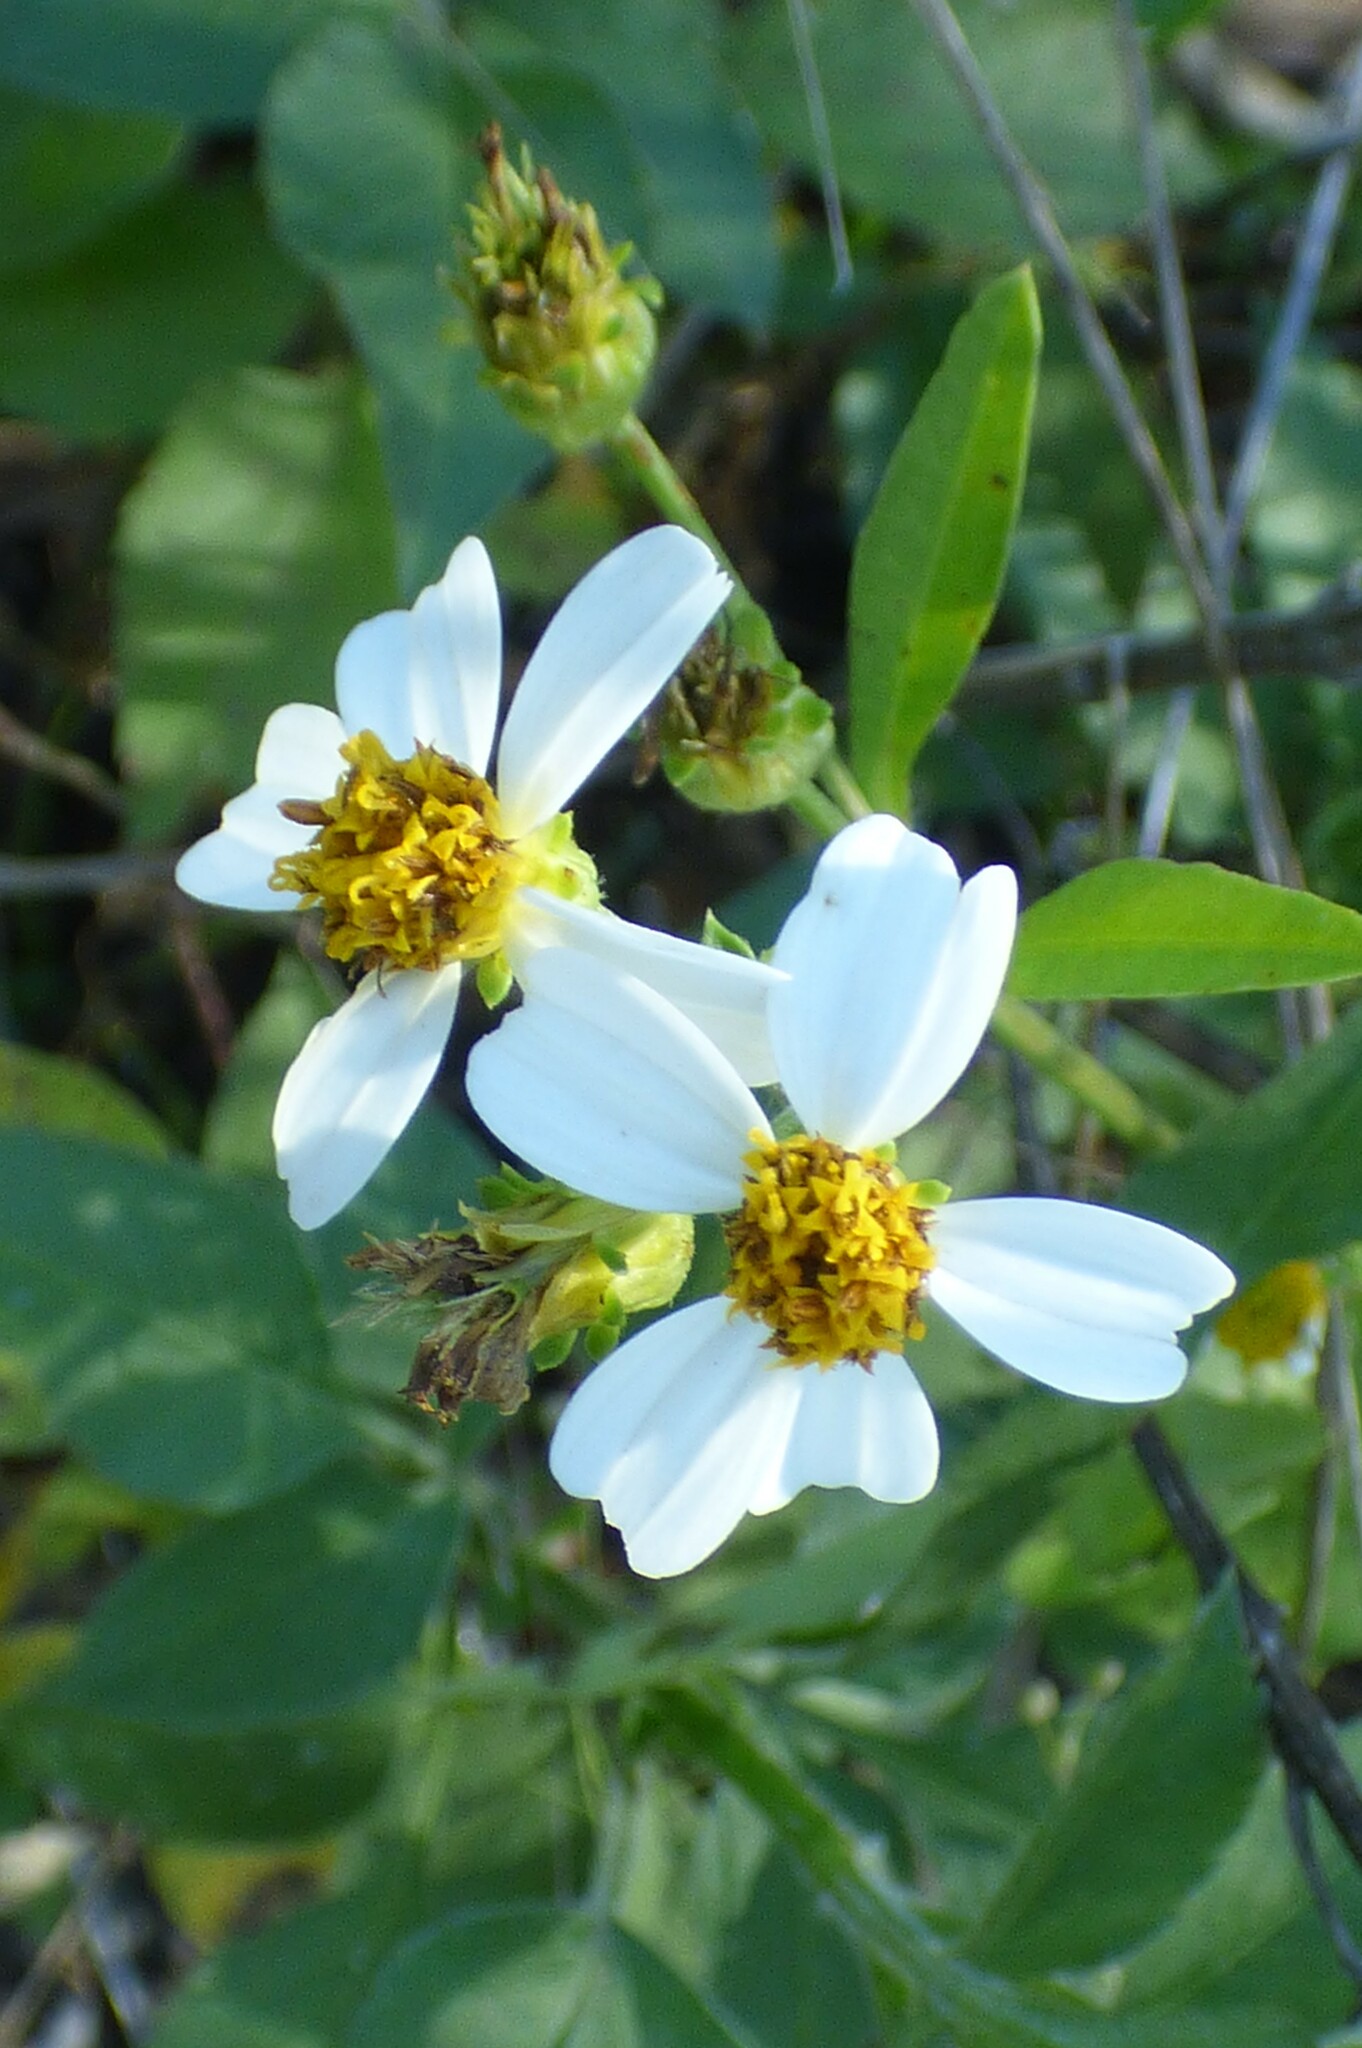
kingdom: Plantae
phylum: Tracheophyta
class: Magnoliopsida
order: Asterales
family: Asteraceae
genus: Bidens
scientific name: Bidens alba
